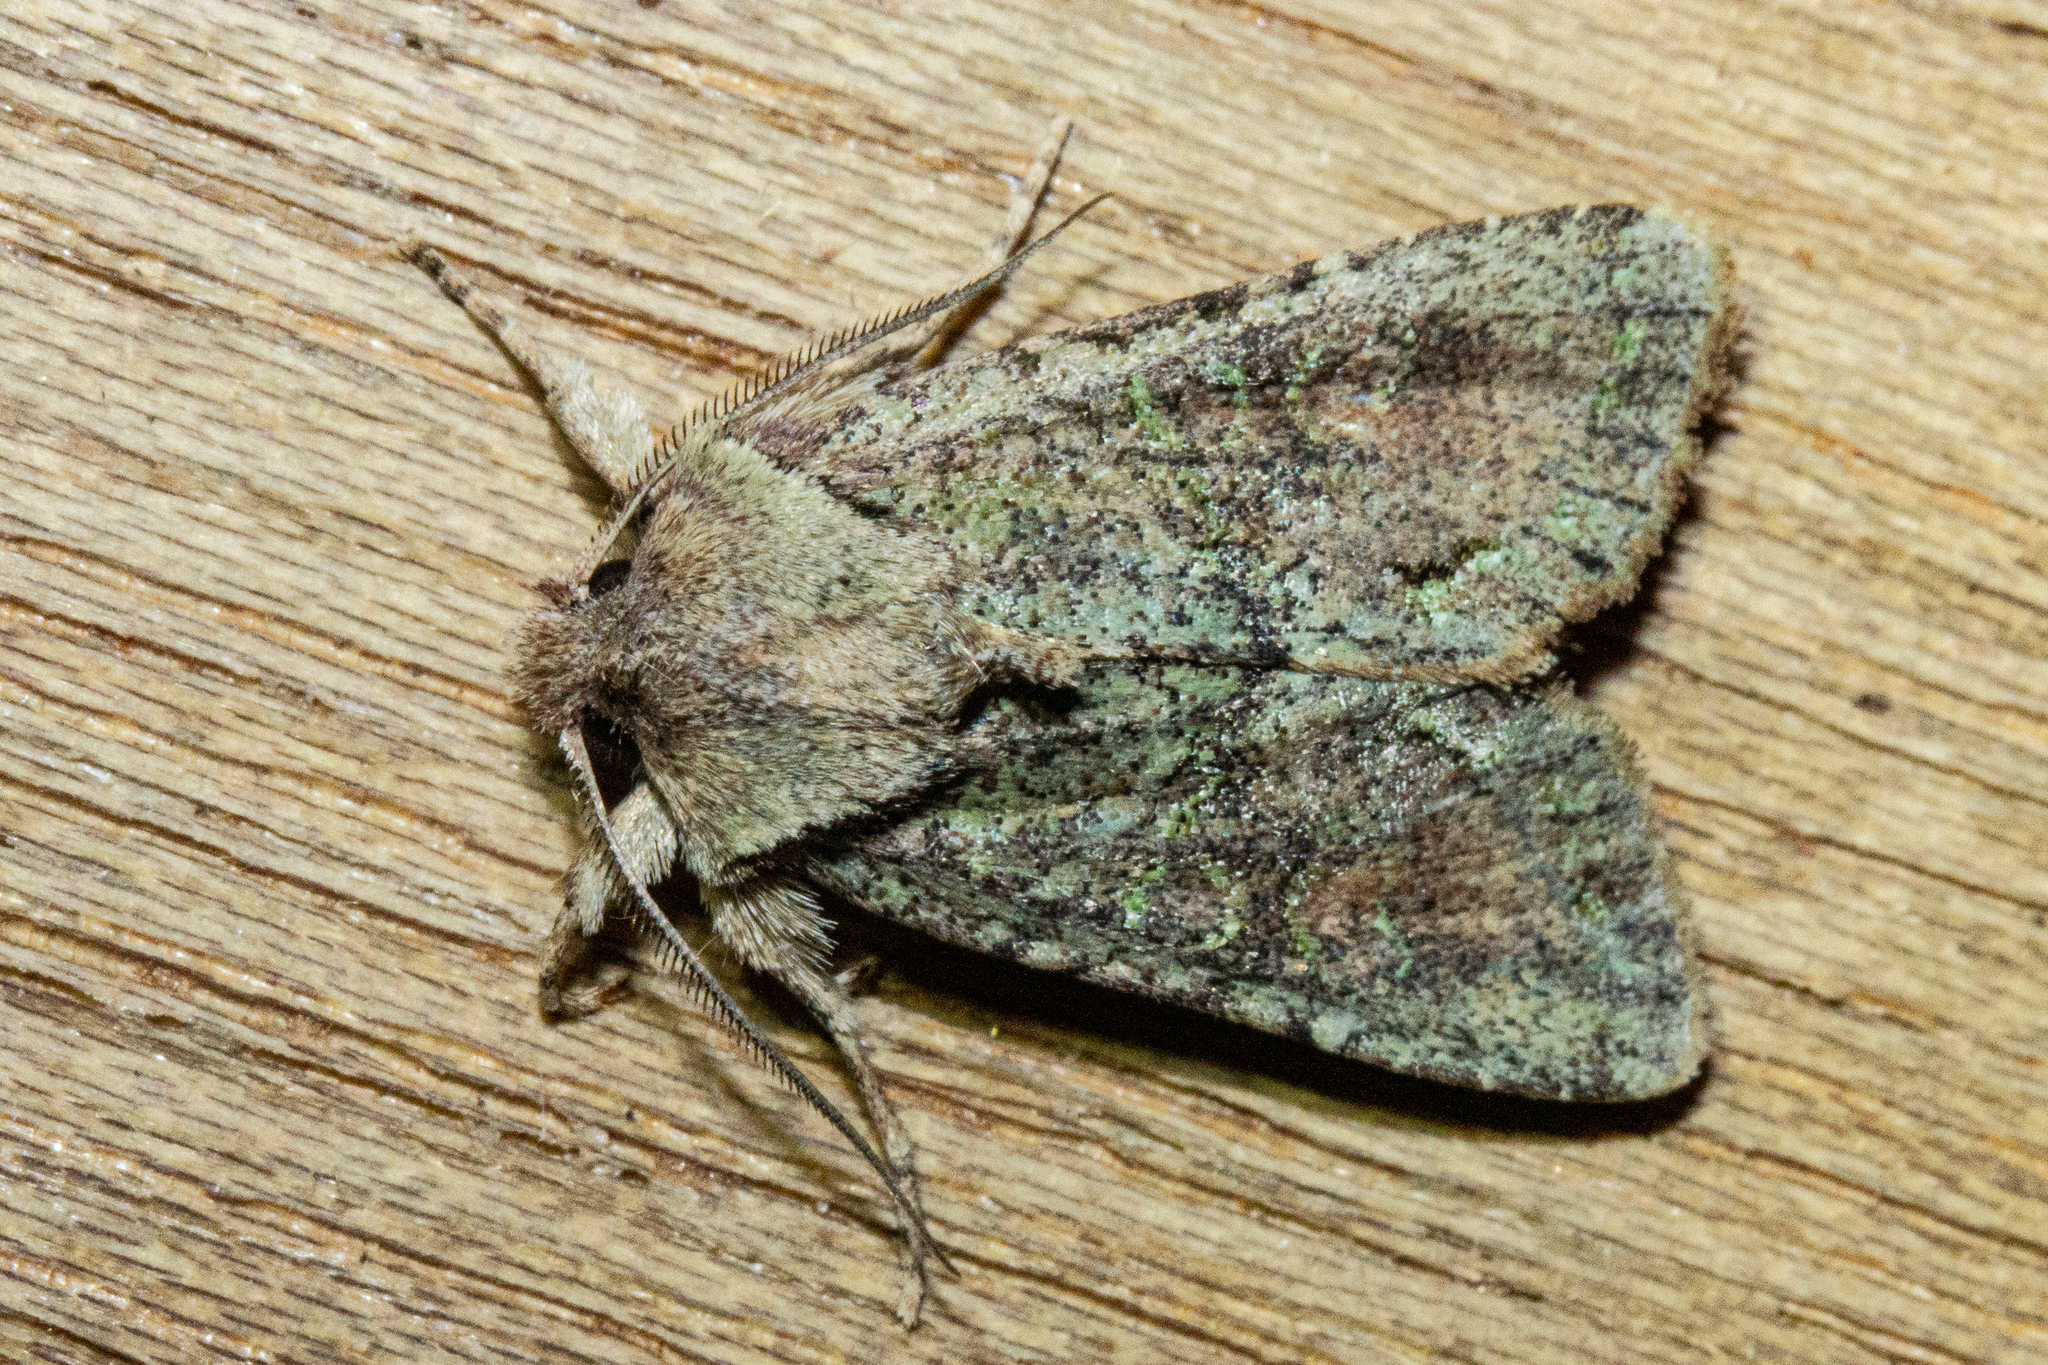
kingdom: Animalia
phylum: Arthropoda
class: Insecta
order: Lepidoptera
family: Noctuidae
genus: Ichneutica
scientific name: Ichneutica skelloni
